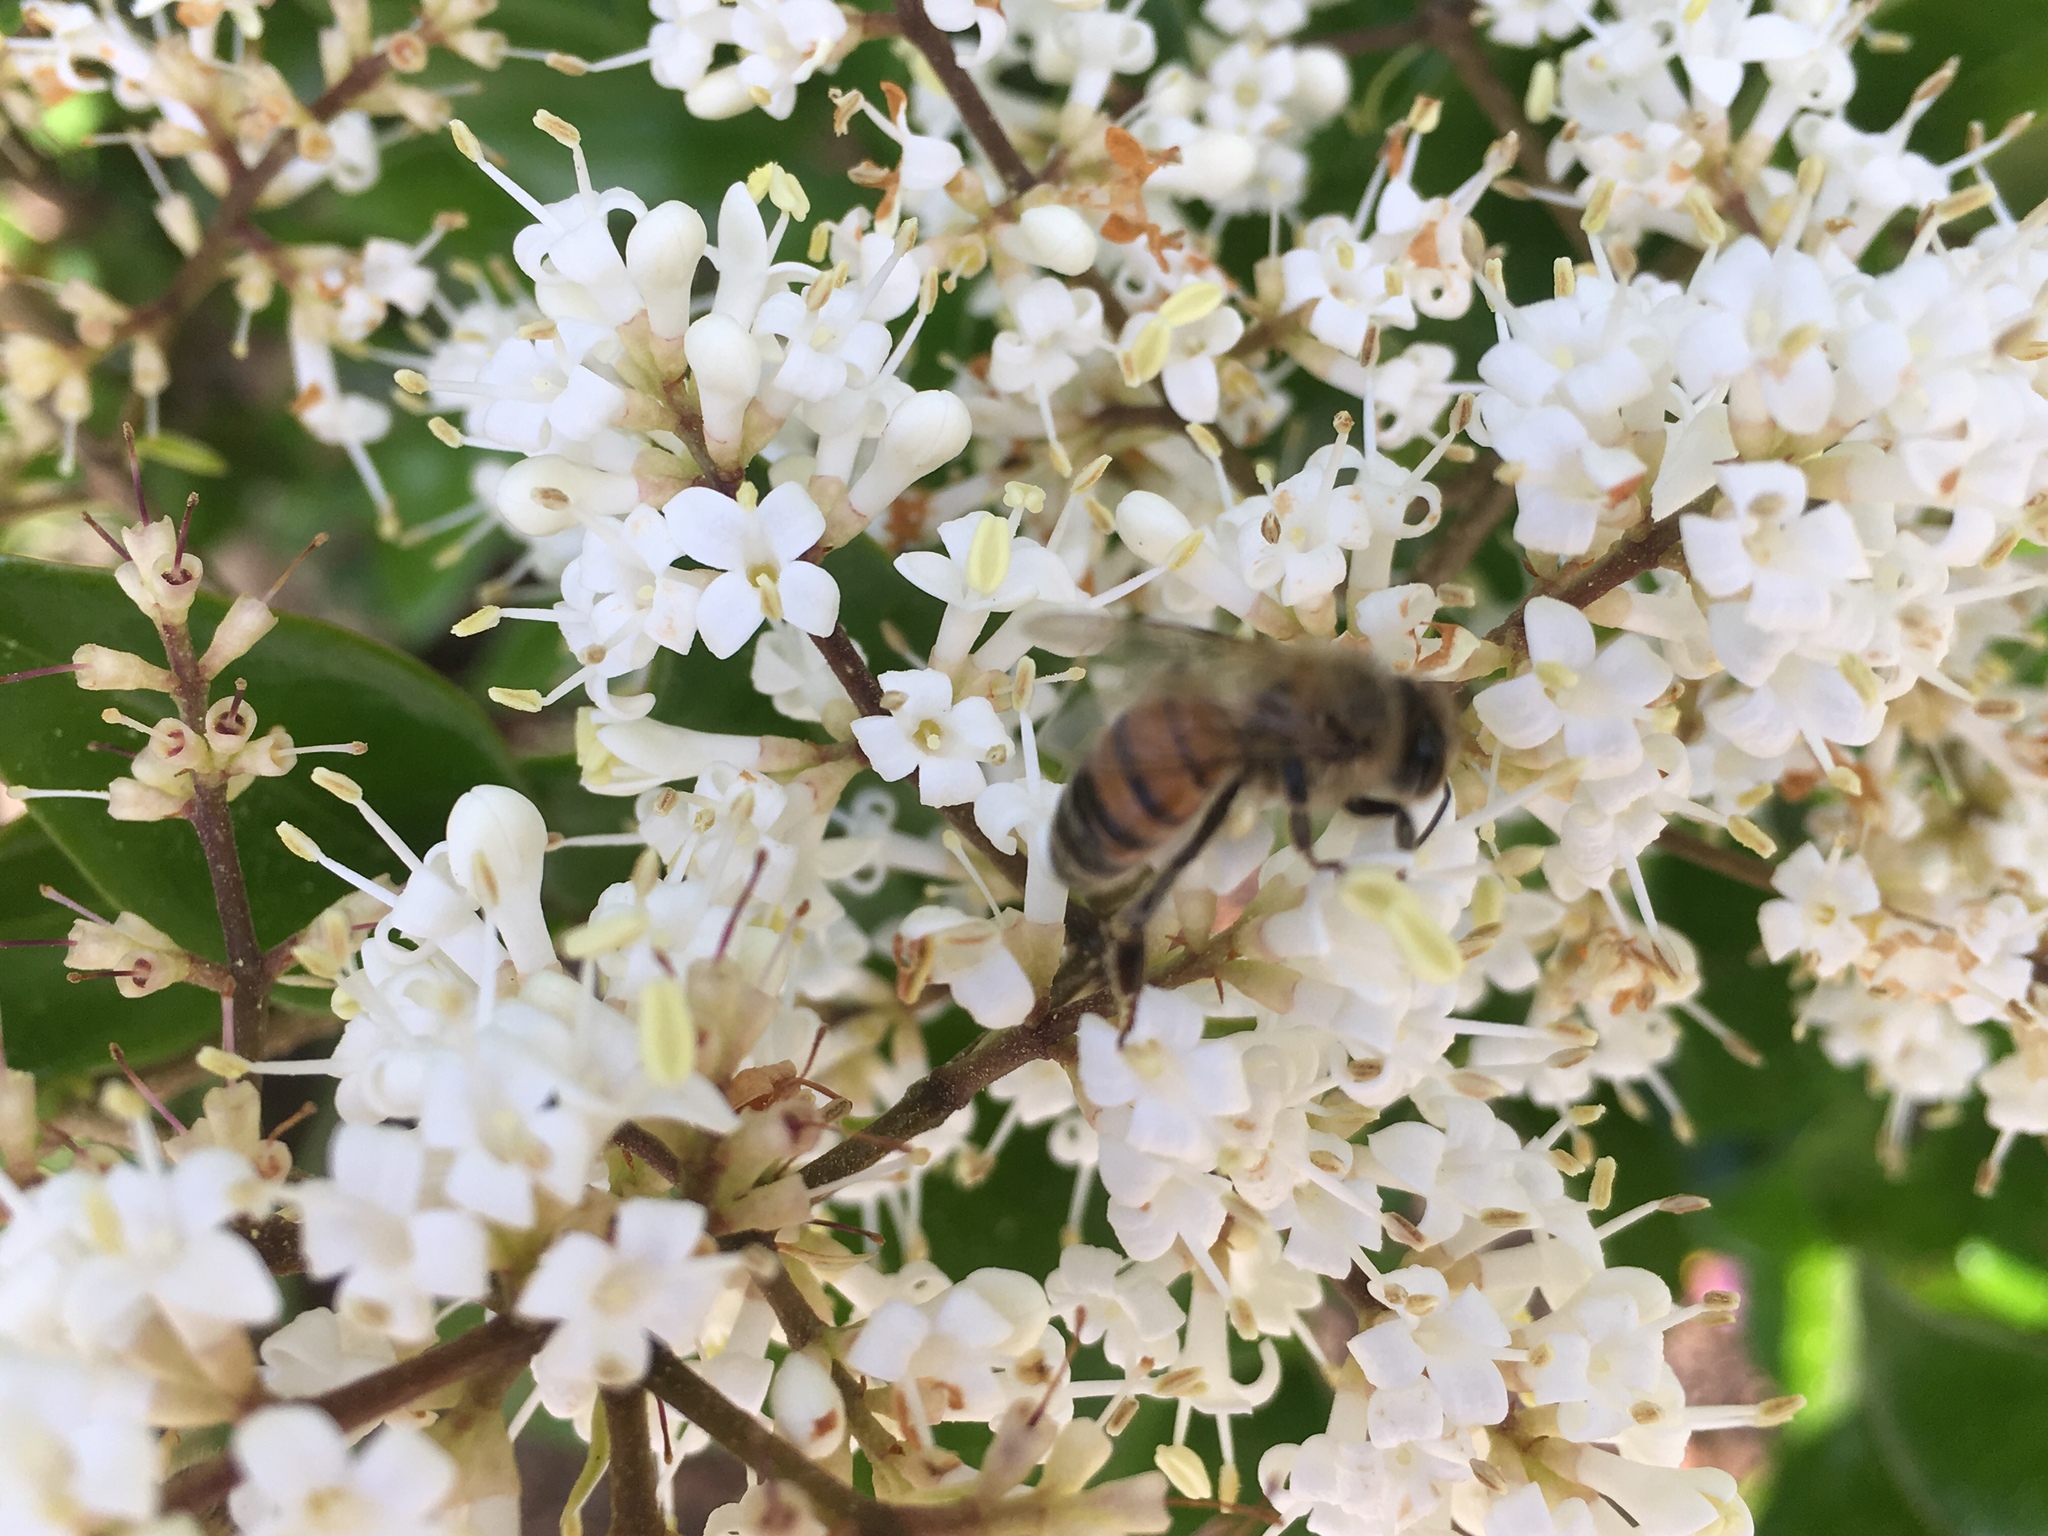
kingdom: Animalia
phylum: Arthropoda
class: Insecta
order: Hymenoptera
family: Apidae
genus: Apis
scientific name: Apis mellifera
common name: Honey bee
